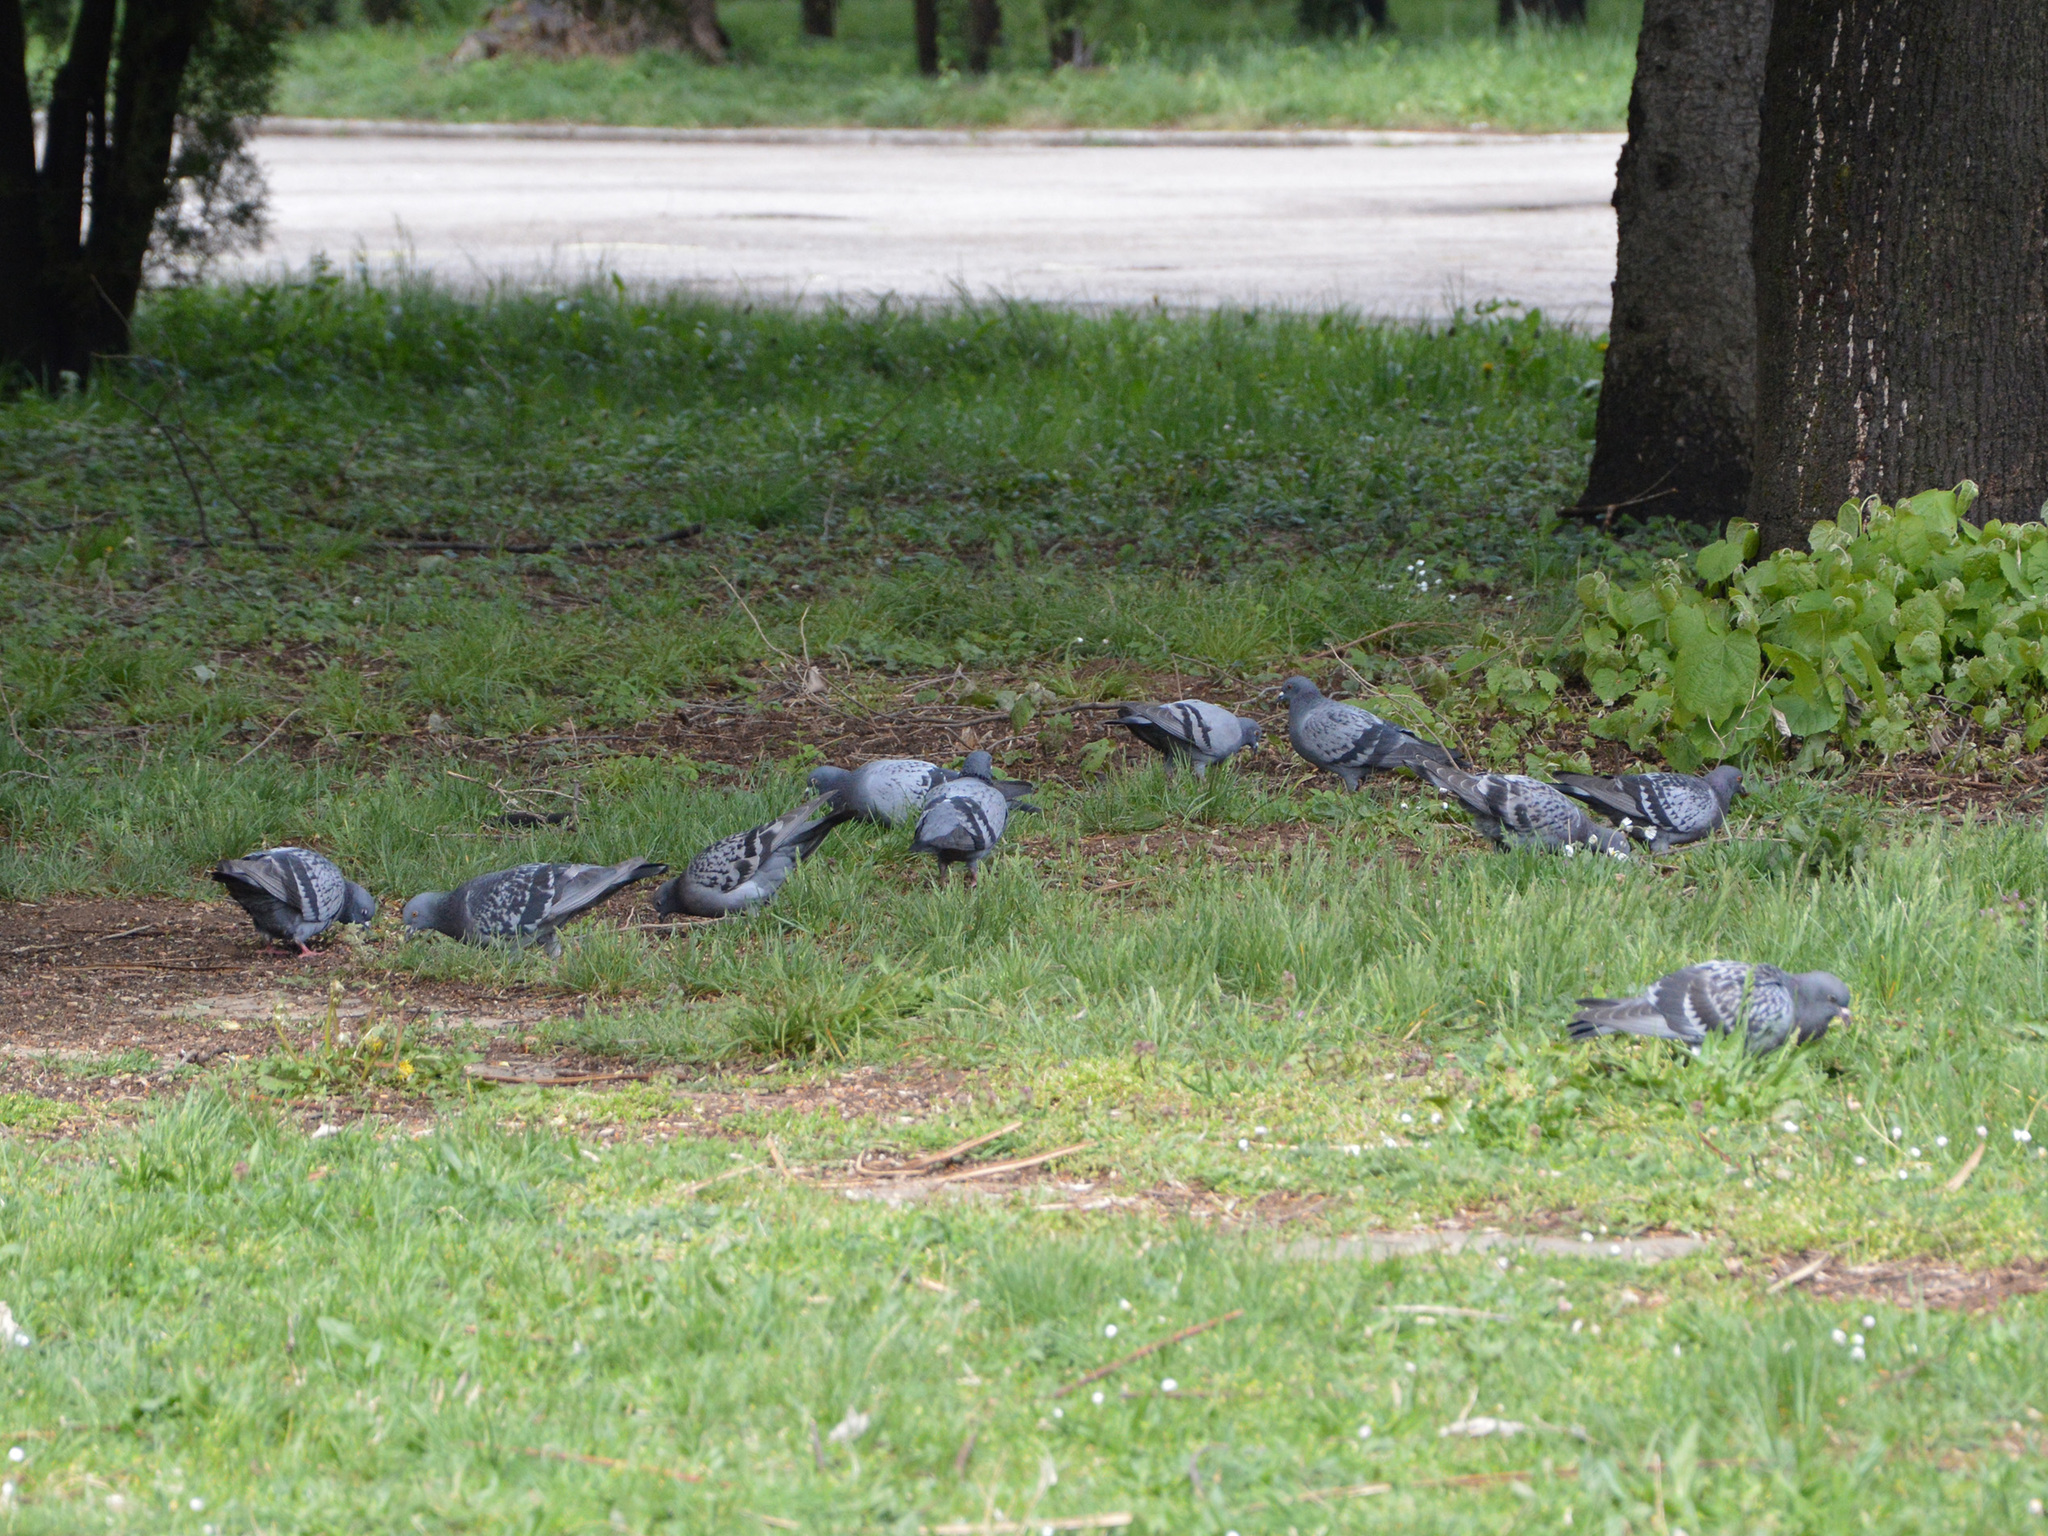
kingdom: Animalia
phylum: Chordata
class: Aves
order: Columbiformes
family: Columbidae
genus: Columba
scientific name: Columba livia
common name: Rock pigeon
